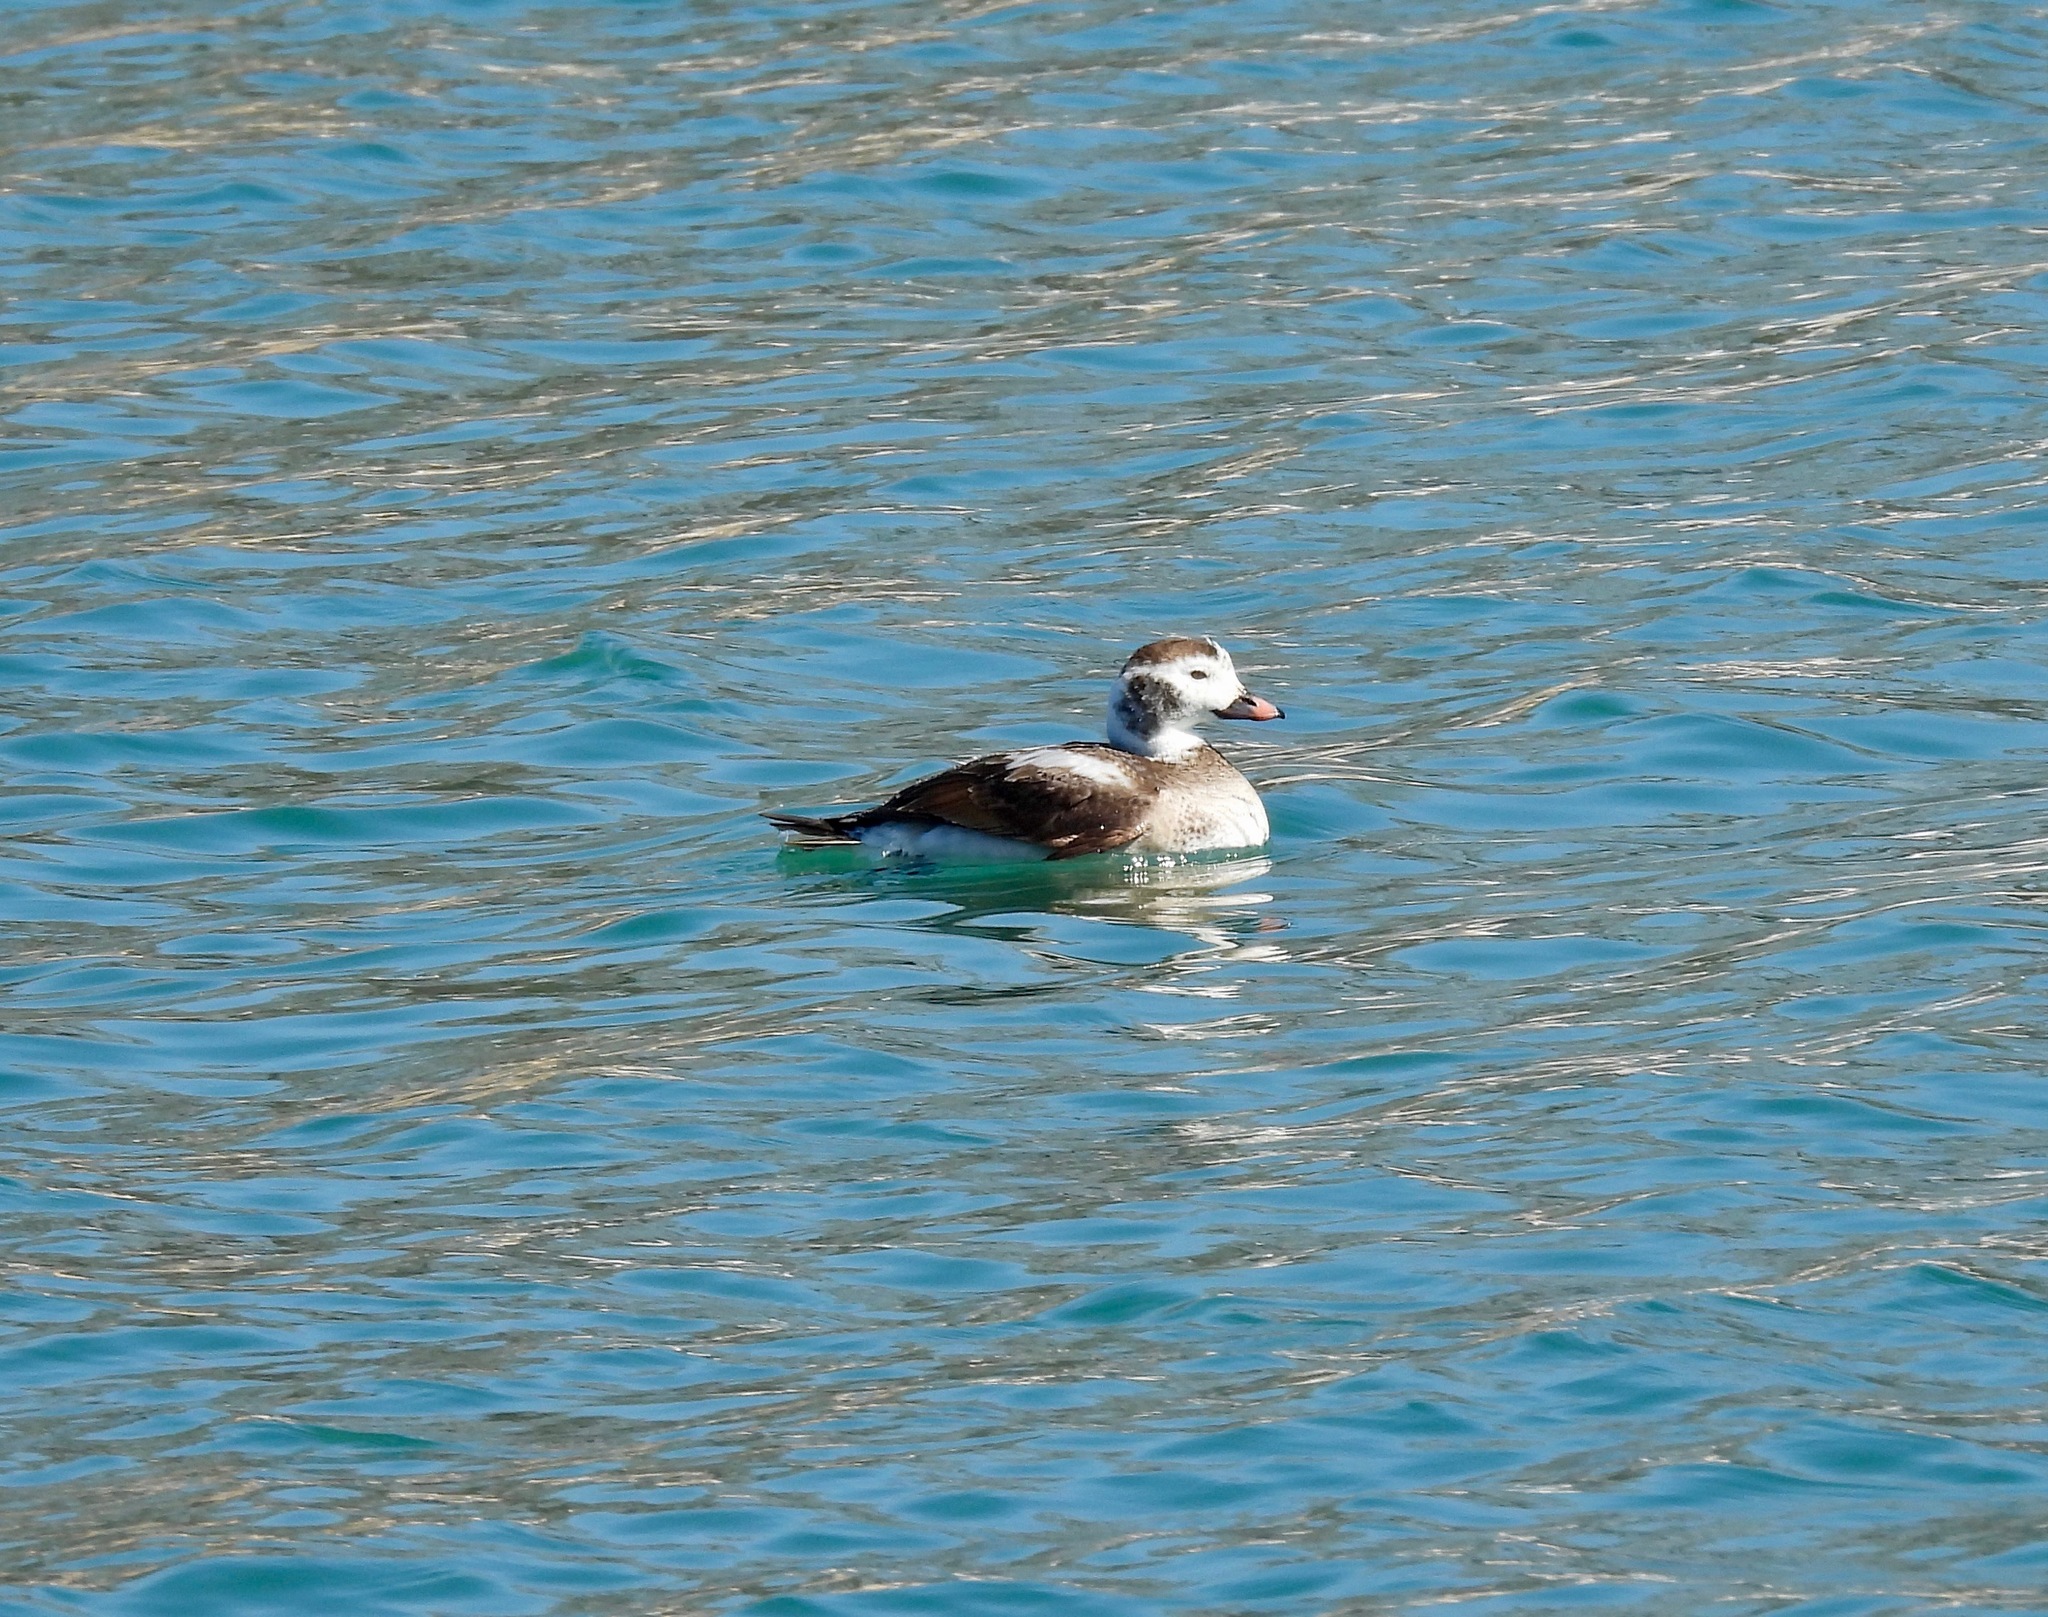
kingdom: Animalia
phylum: Chordata
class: Aves
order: Anseriformes
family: Anatidae
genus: Clangula
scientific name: Clangula hyemalis
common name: Long-tailed duck
